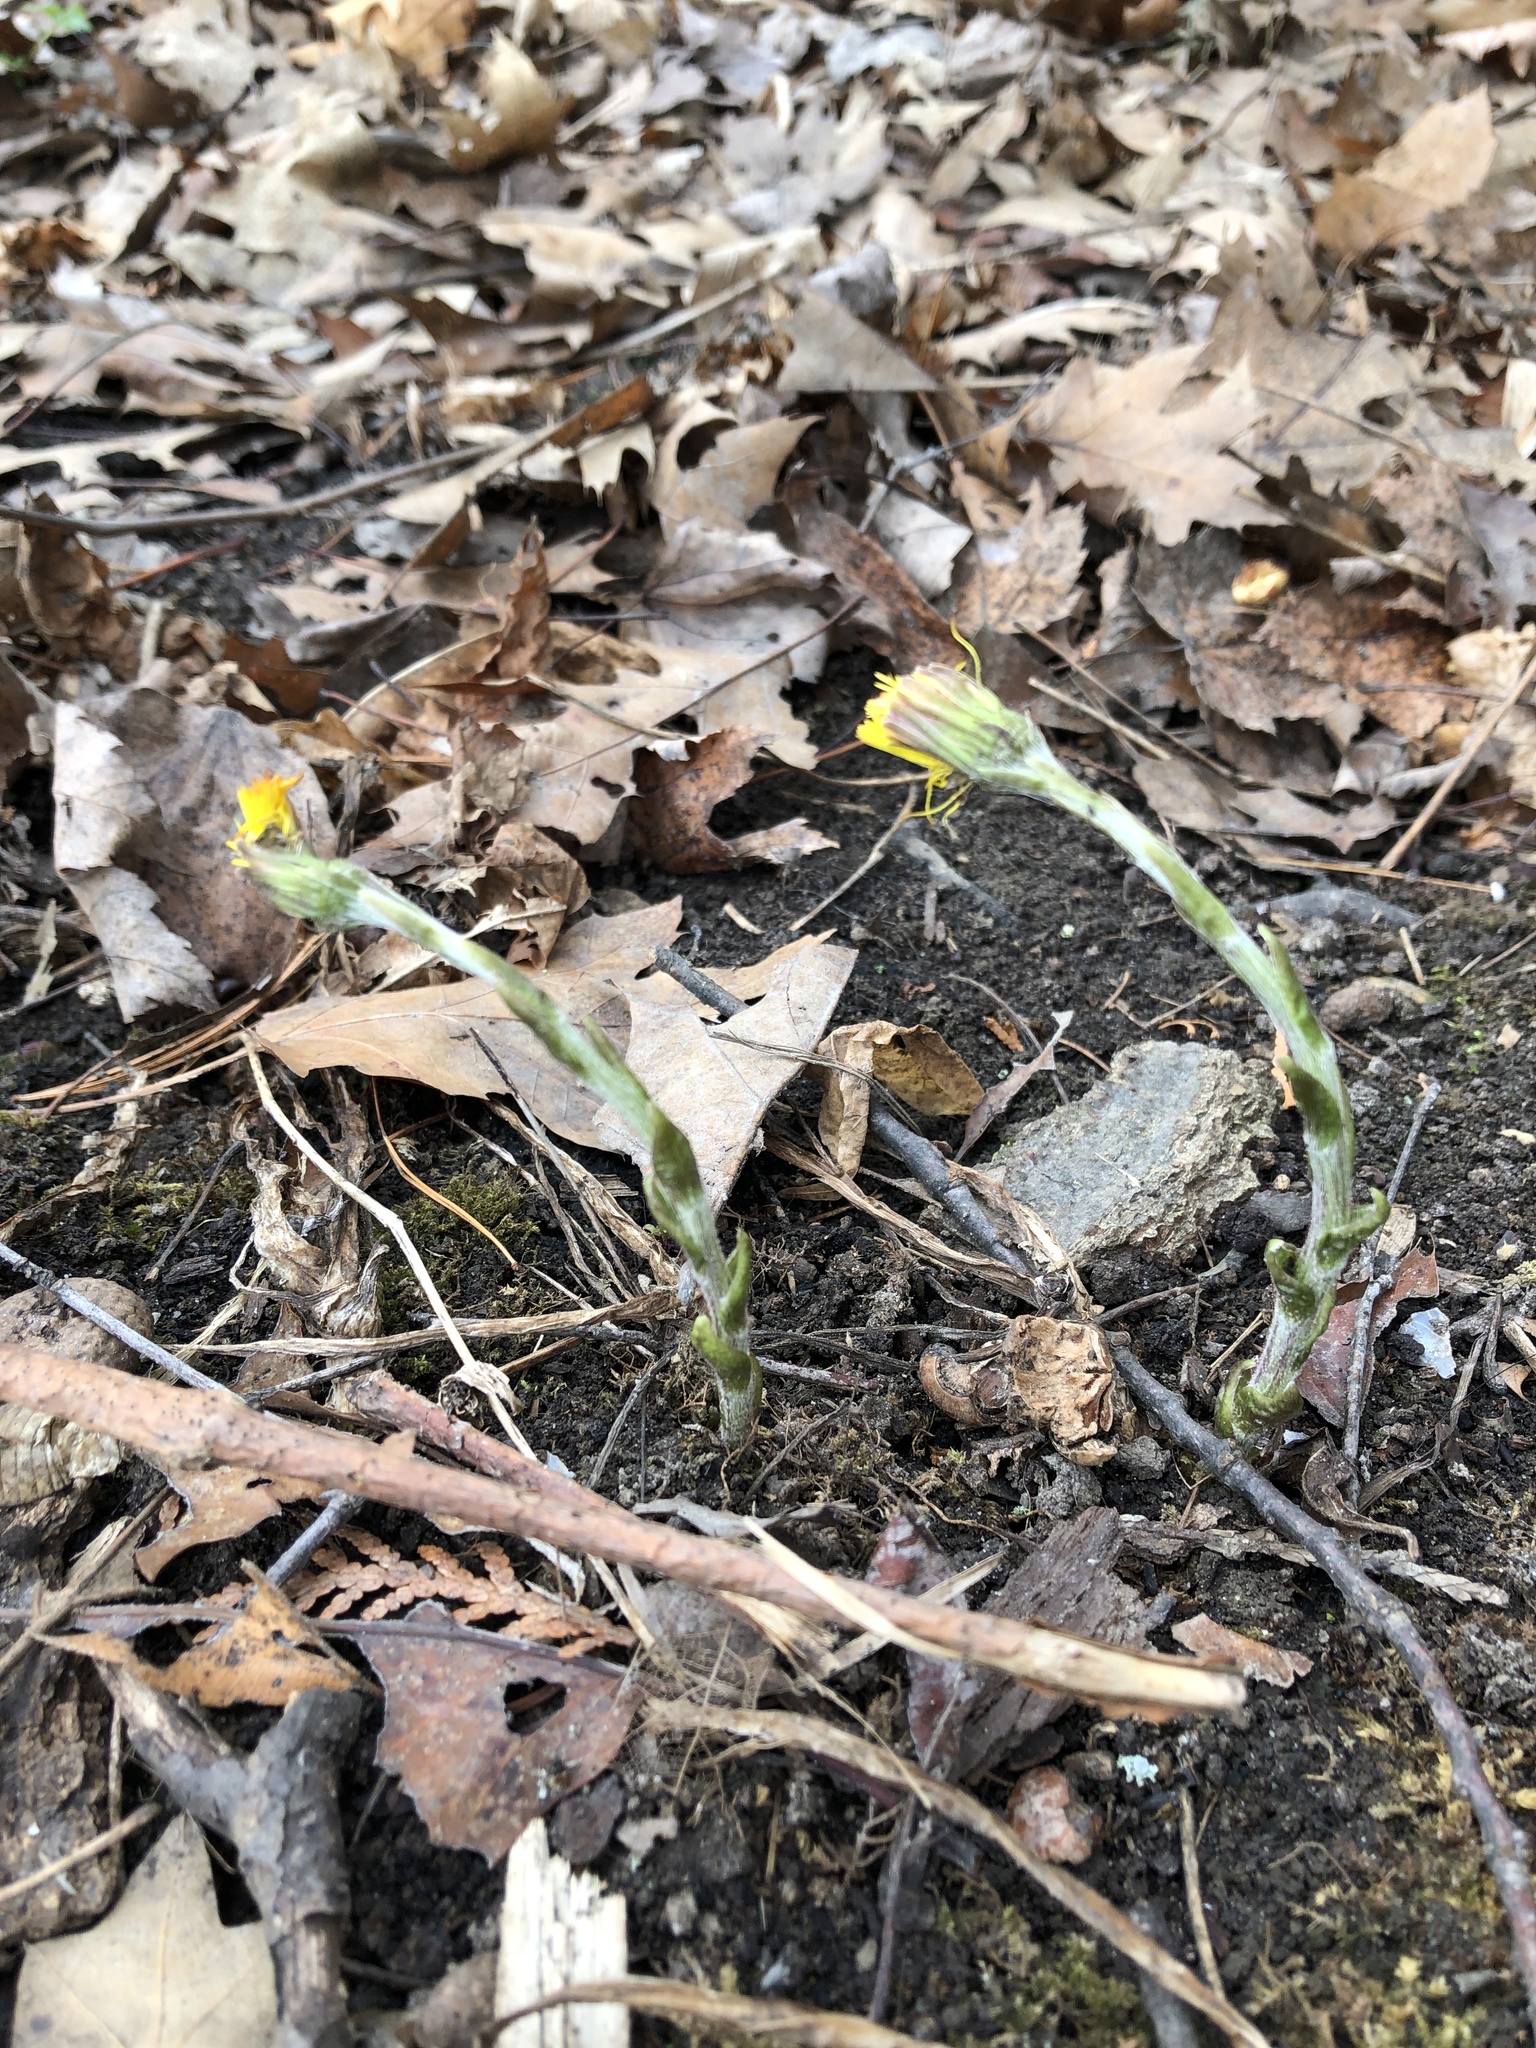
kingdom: Plantae
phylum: Tracheophyta
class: Magnoliopsida
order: Asterales
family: Asteraceae
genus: Tussilago
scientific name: Tussilago farfara
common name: Coltsfoot
